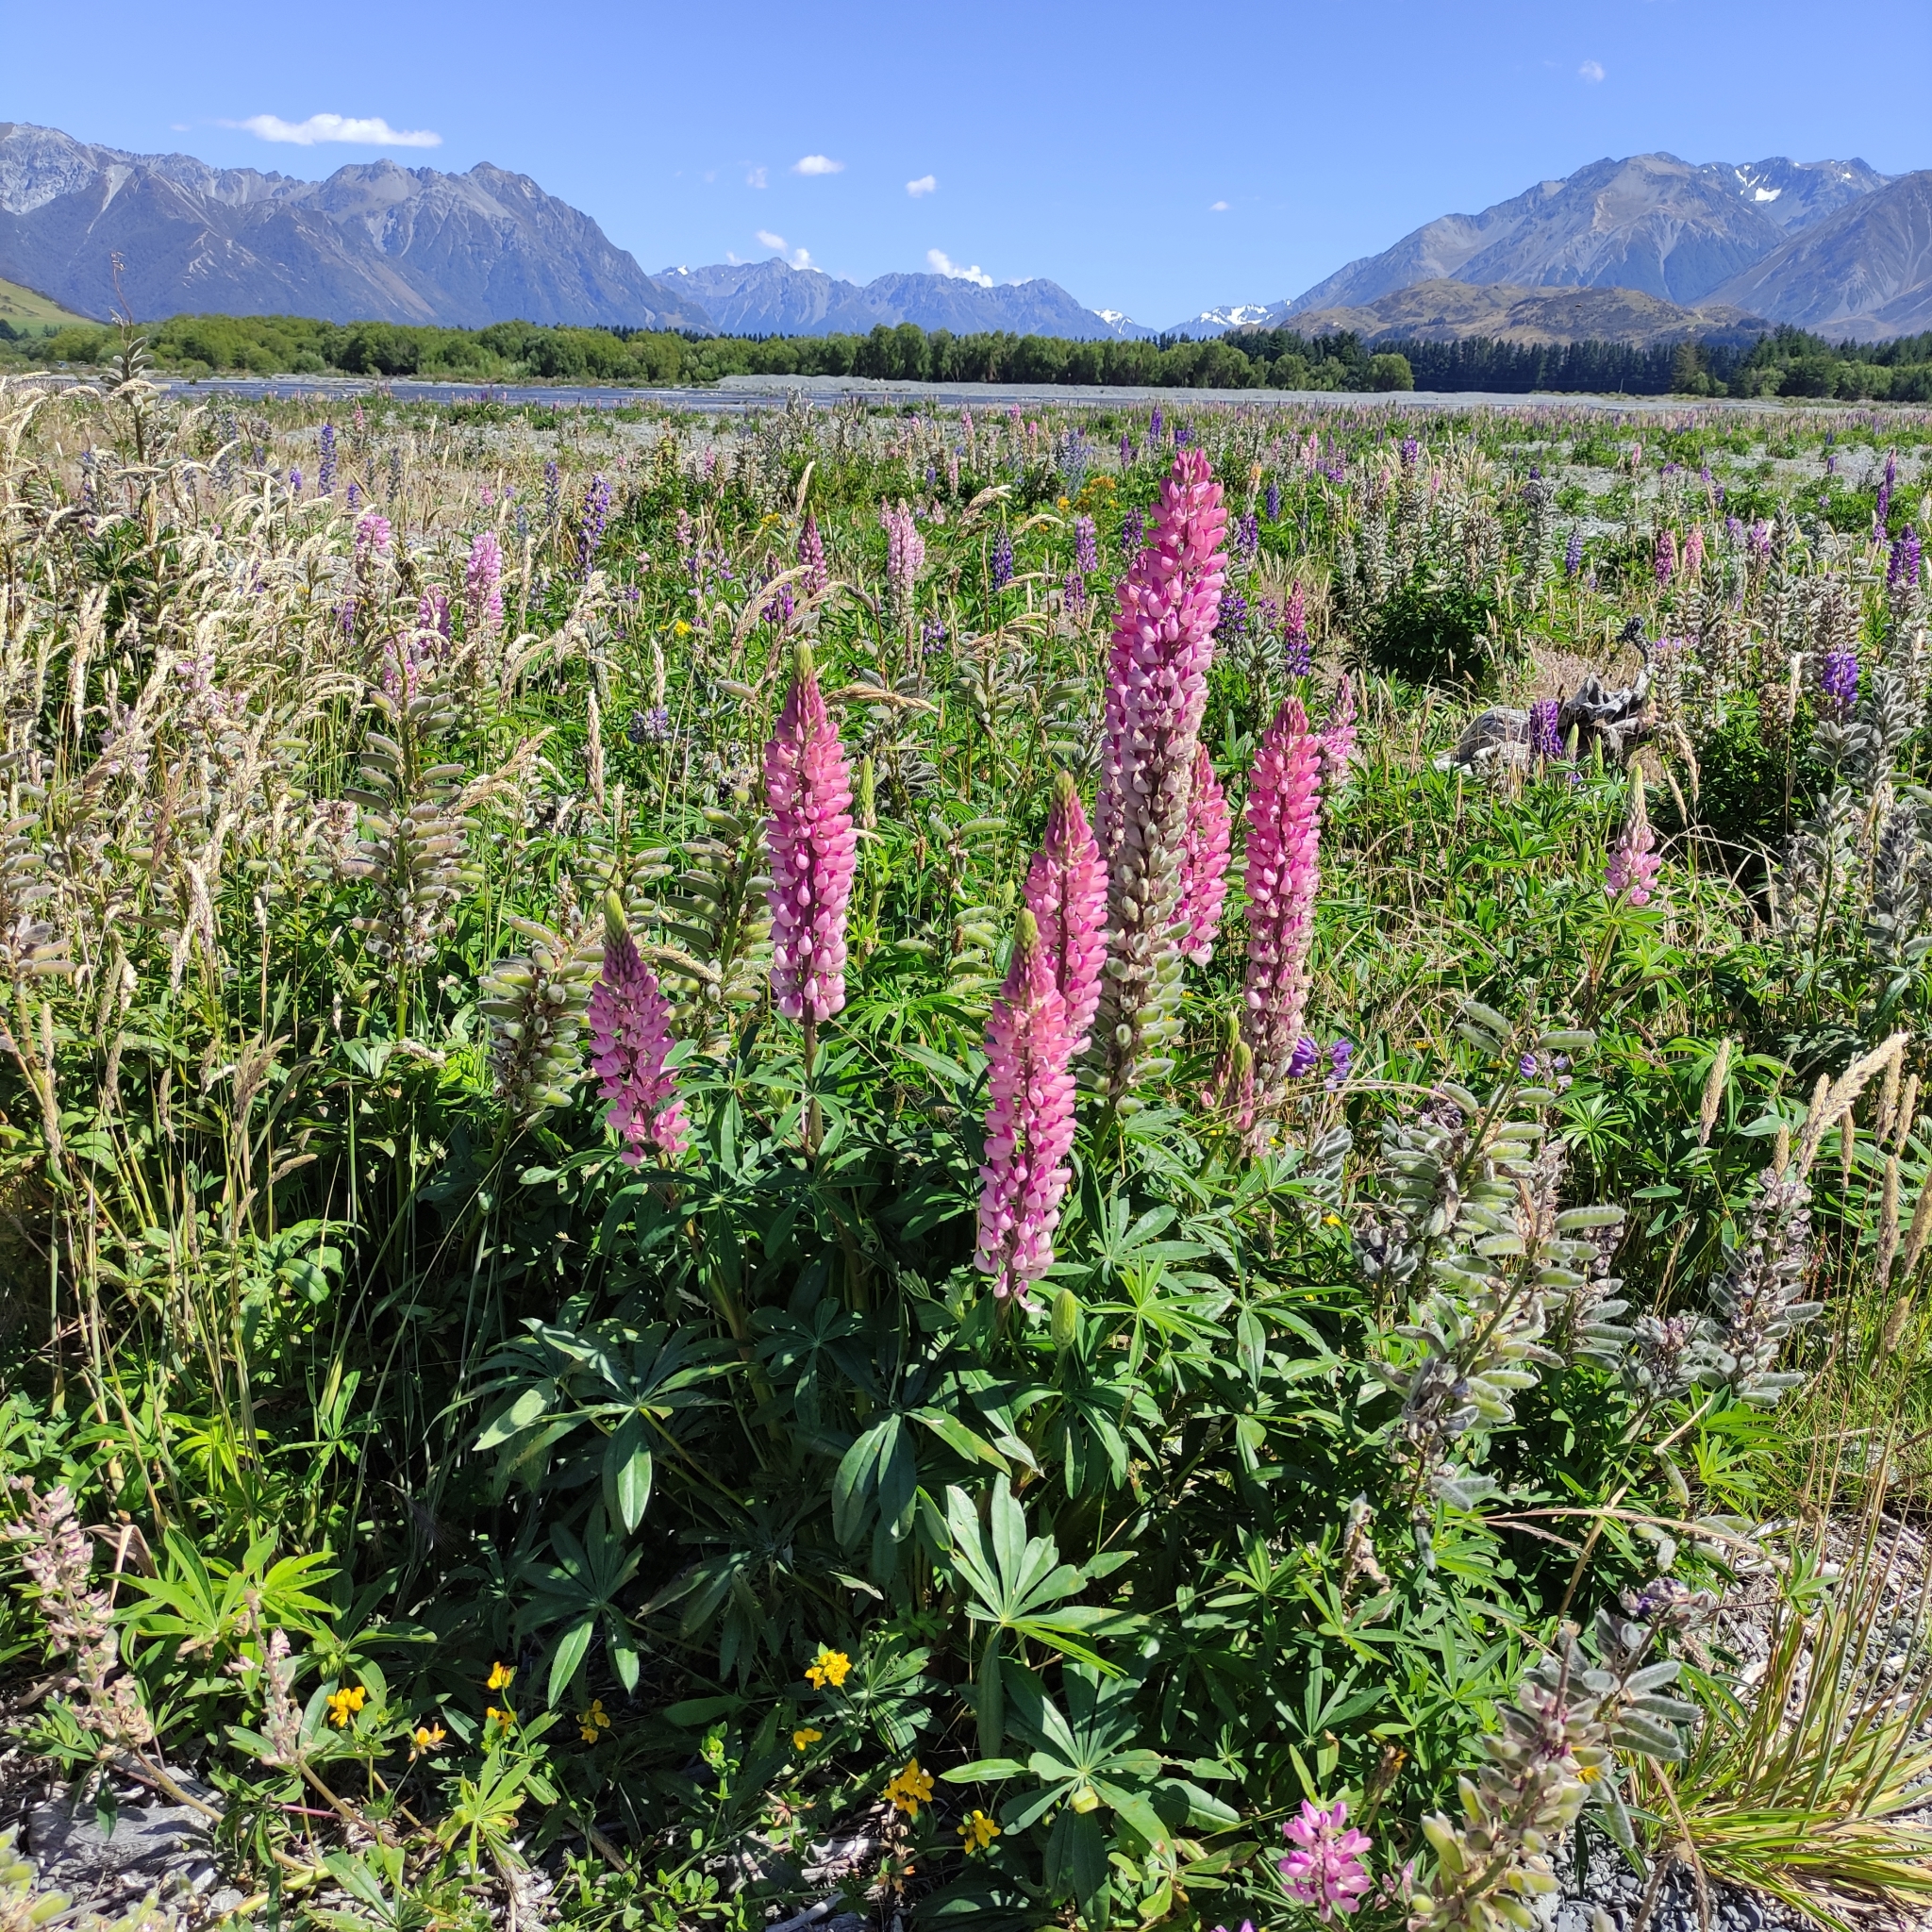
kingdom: Plantae
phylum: Tracheophyta
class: Magnoliopsida
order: Fabales
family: Fabaceae
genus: Lupinus
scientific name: Lupinus polyphyllus
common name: Garden lupin
